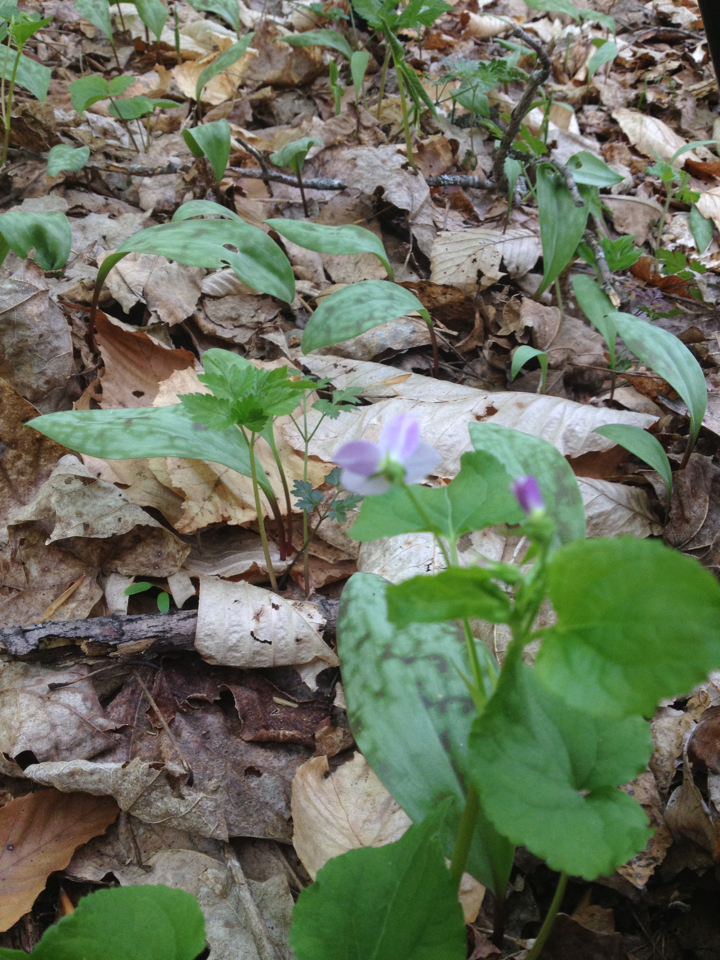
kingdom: Plantae
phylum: Tracheophyta
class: Magnoliopsida
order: Malpighiales
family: Violaceae
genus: Viola
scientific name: Viola canadensis
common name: Canada violet
